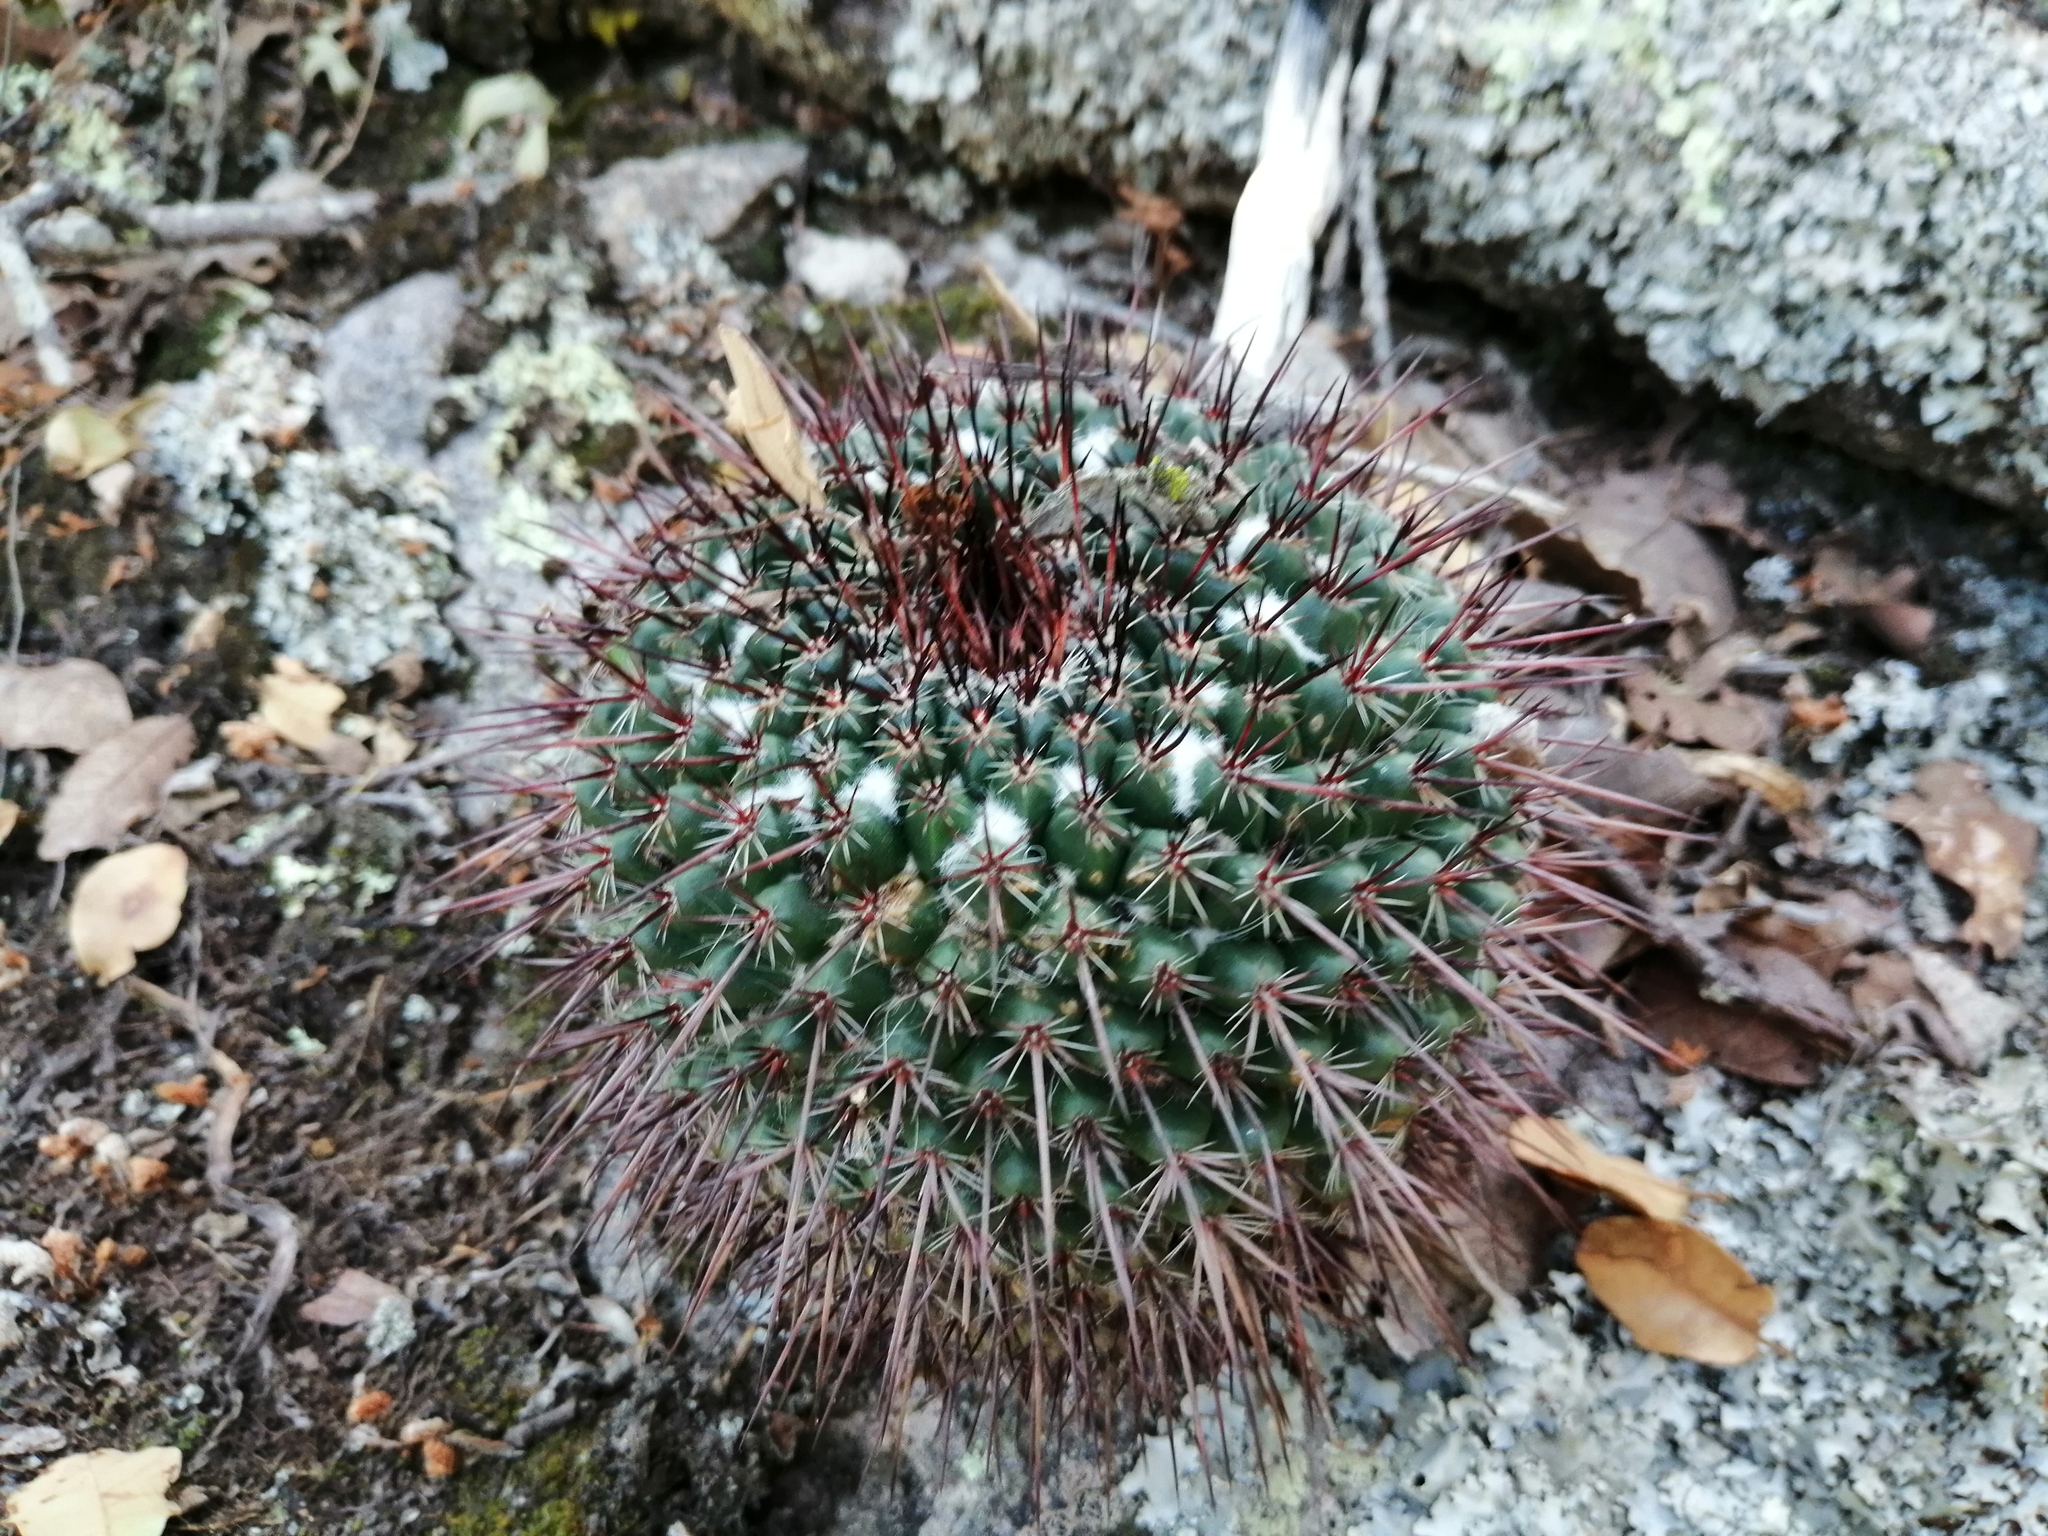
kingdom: Plantae
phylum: Tracheophyta
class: Magnoliopsida
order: Caryophyllales
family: Cactaceae
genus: Mammillaria
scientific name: Mammillaria gigantea
